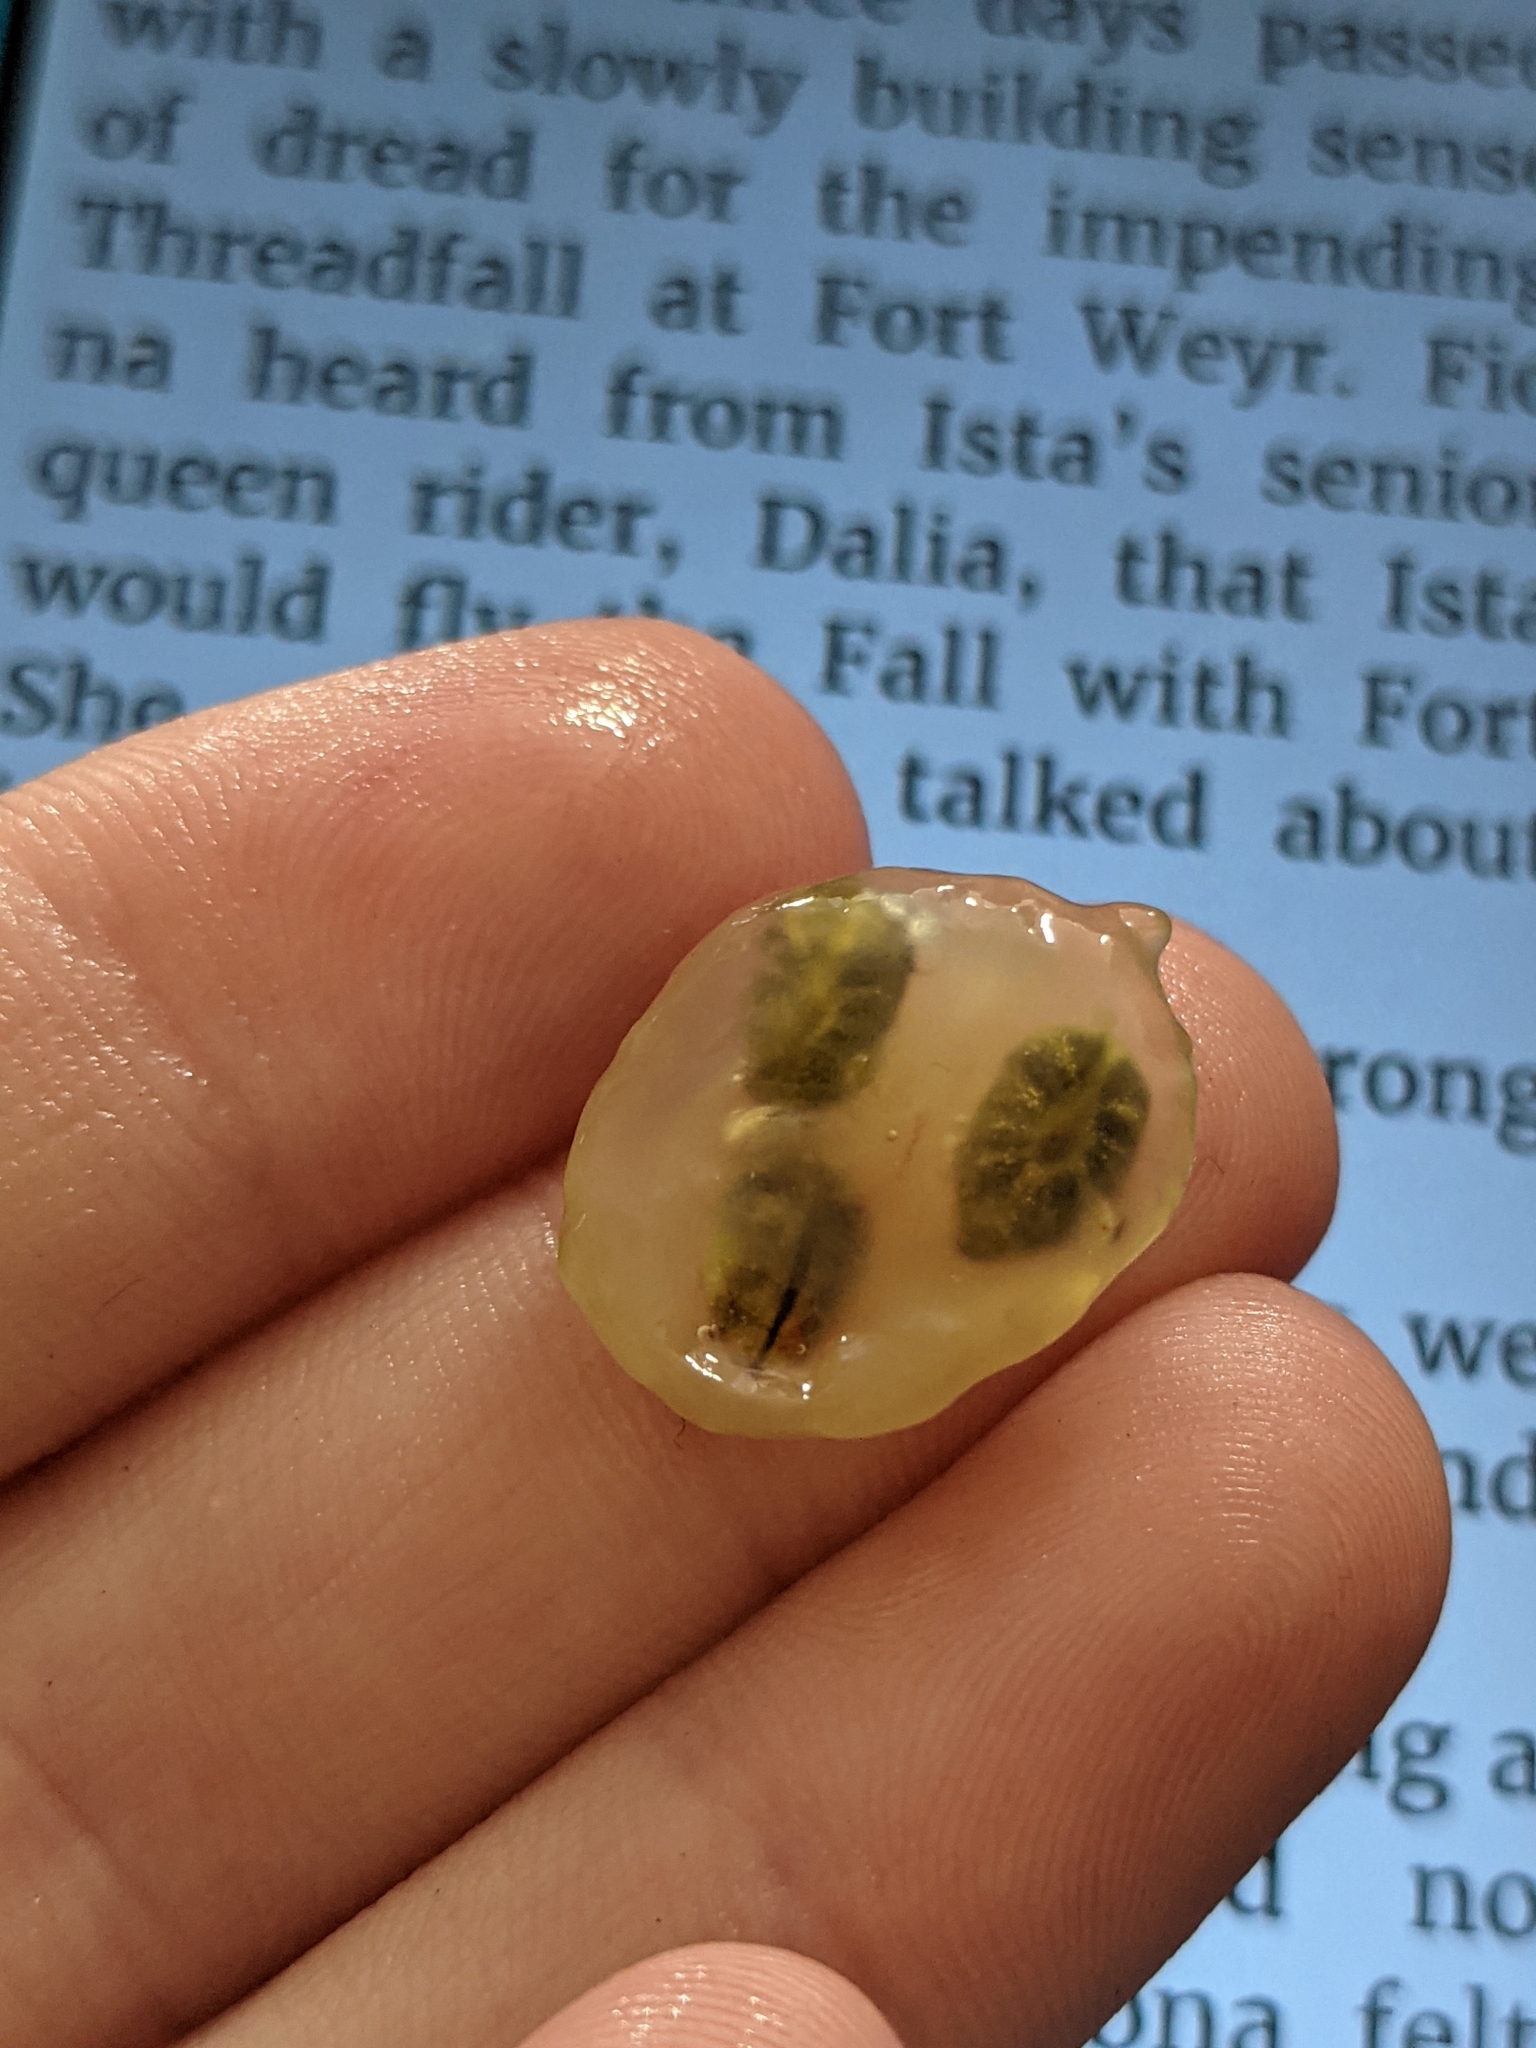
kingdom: Plantae
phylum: Tracheophyta
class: Magnoliopsida
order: Vitales
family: Vitaceae
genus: Vitis
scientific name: Vitis rotundifolia
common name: Muscadine grape
